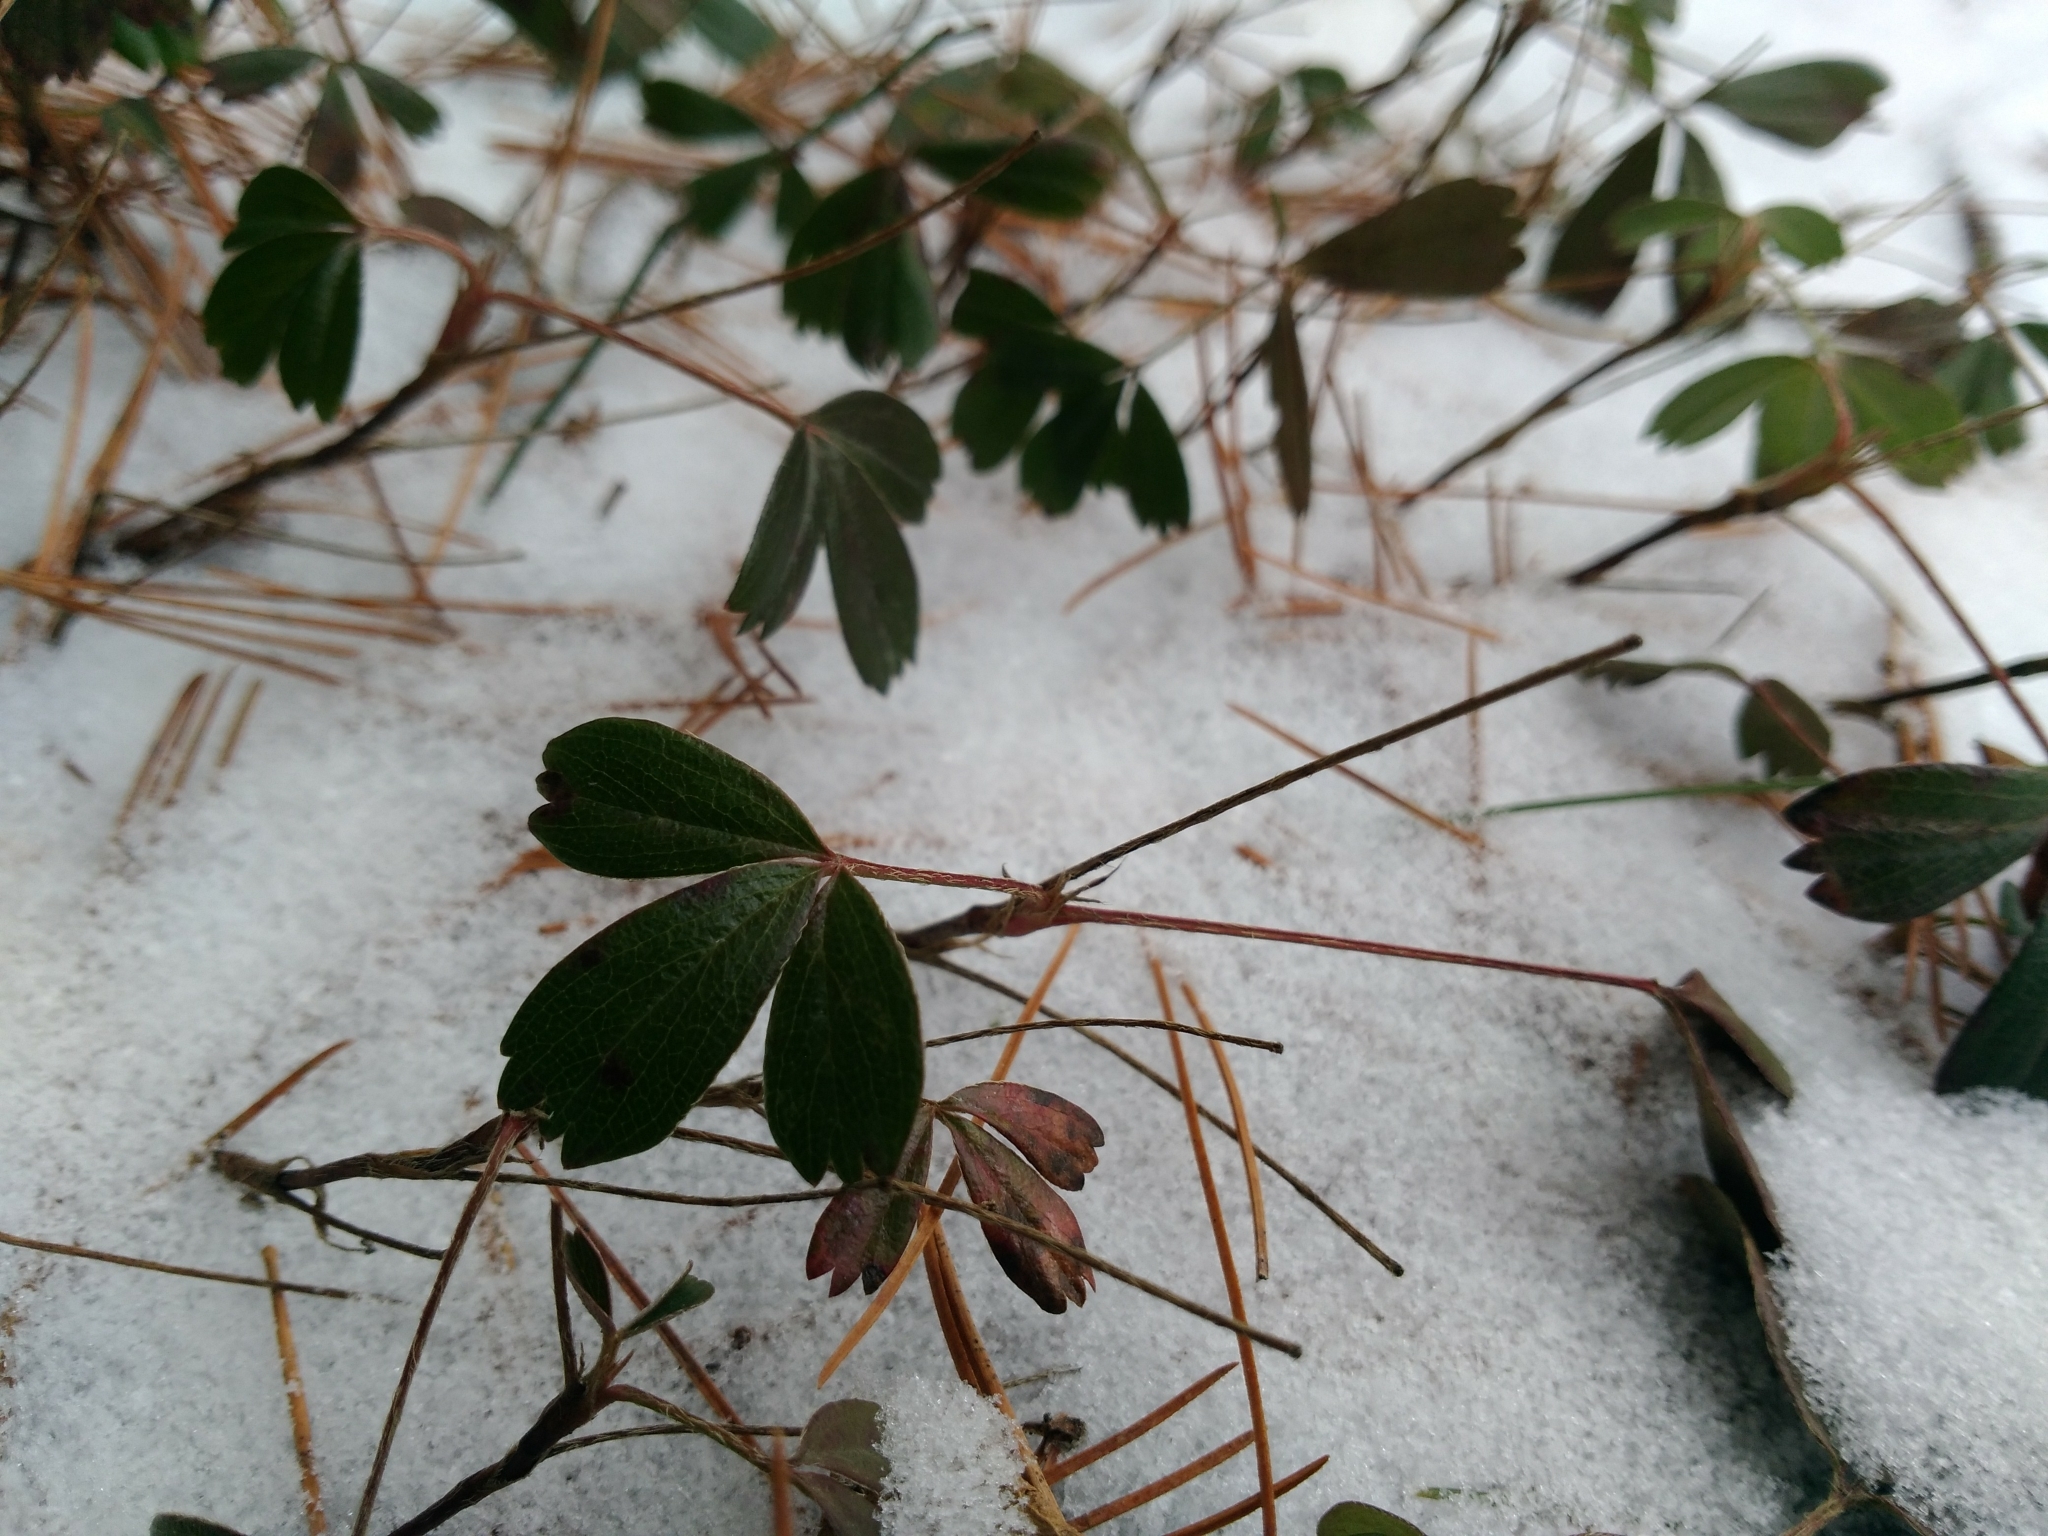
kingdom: Plantae
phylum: Tracheophyta
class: Magnoliopsida
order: Rosales
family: Rosaceae
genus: Sibbaldia
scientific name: Sibbaldia tridentata
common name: Three-toothed cinquefoil
